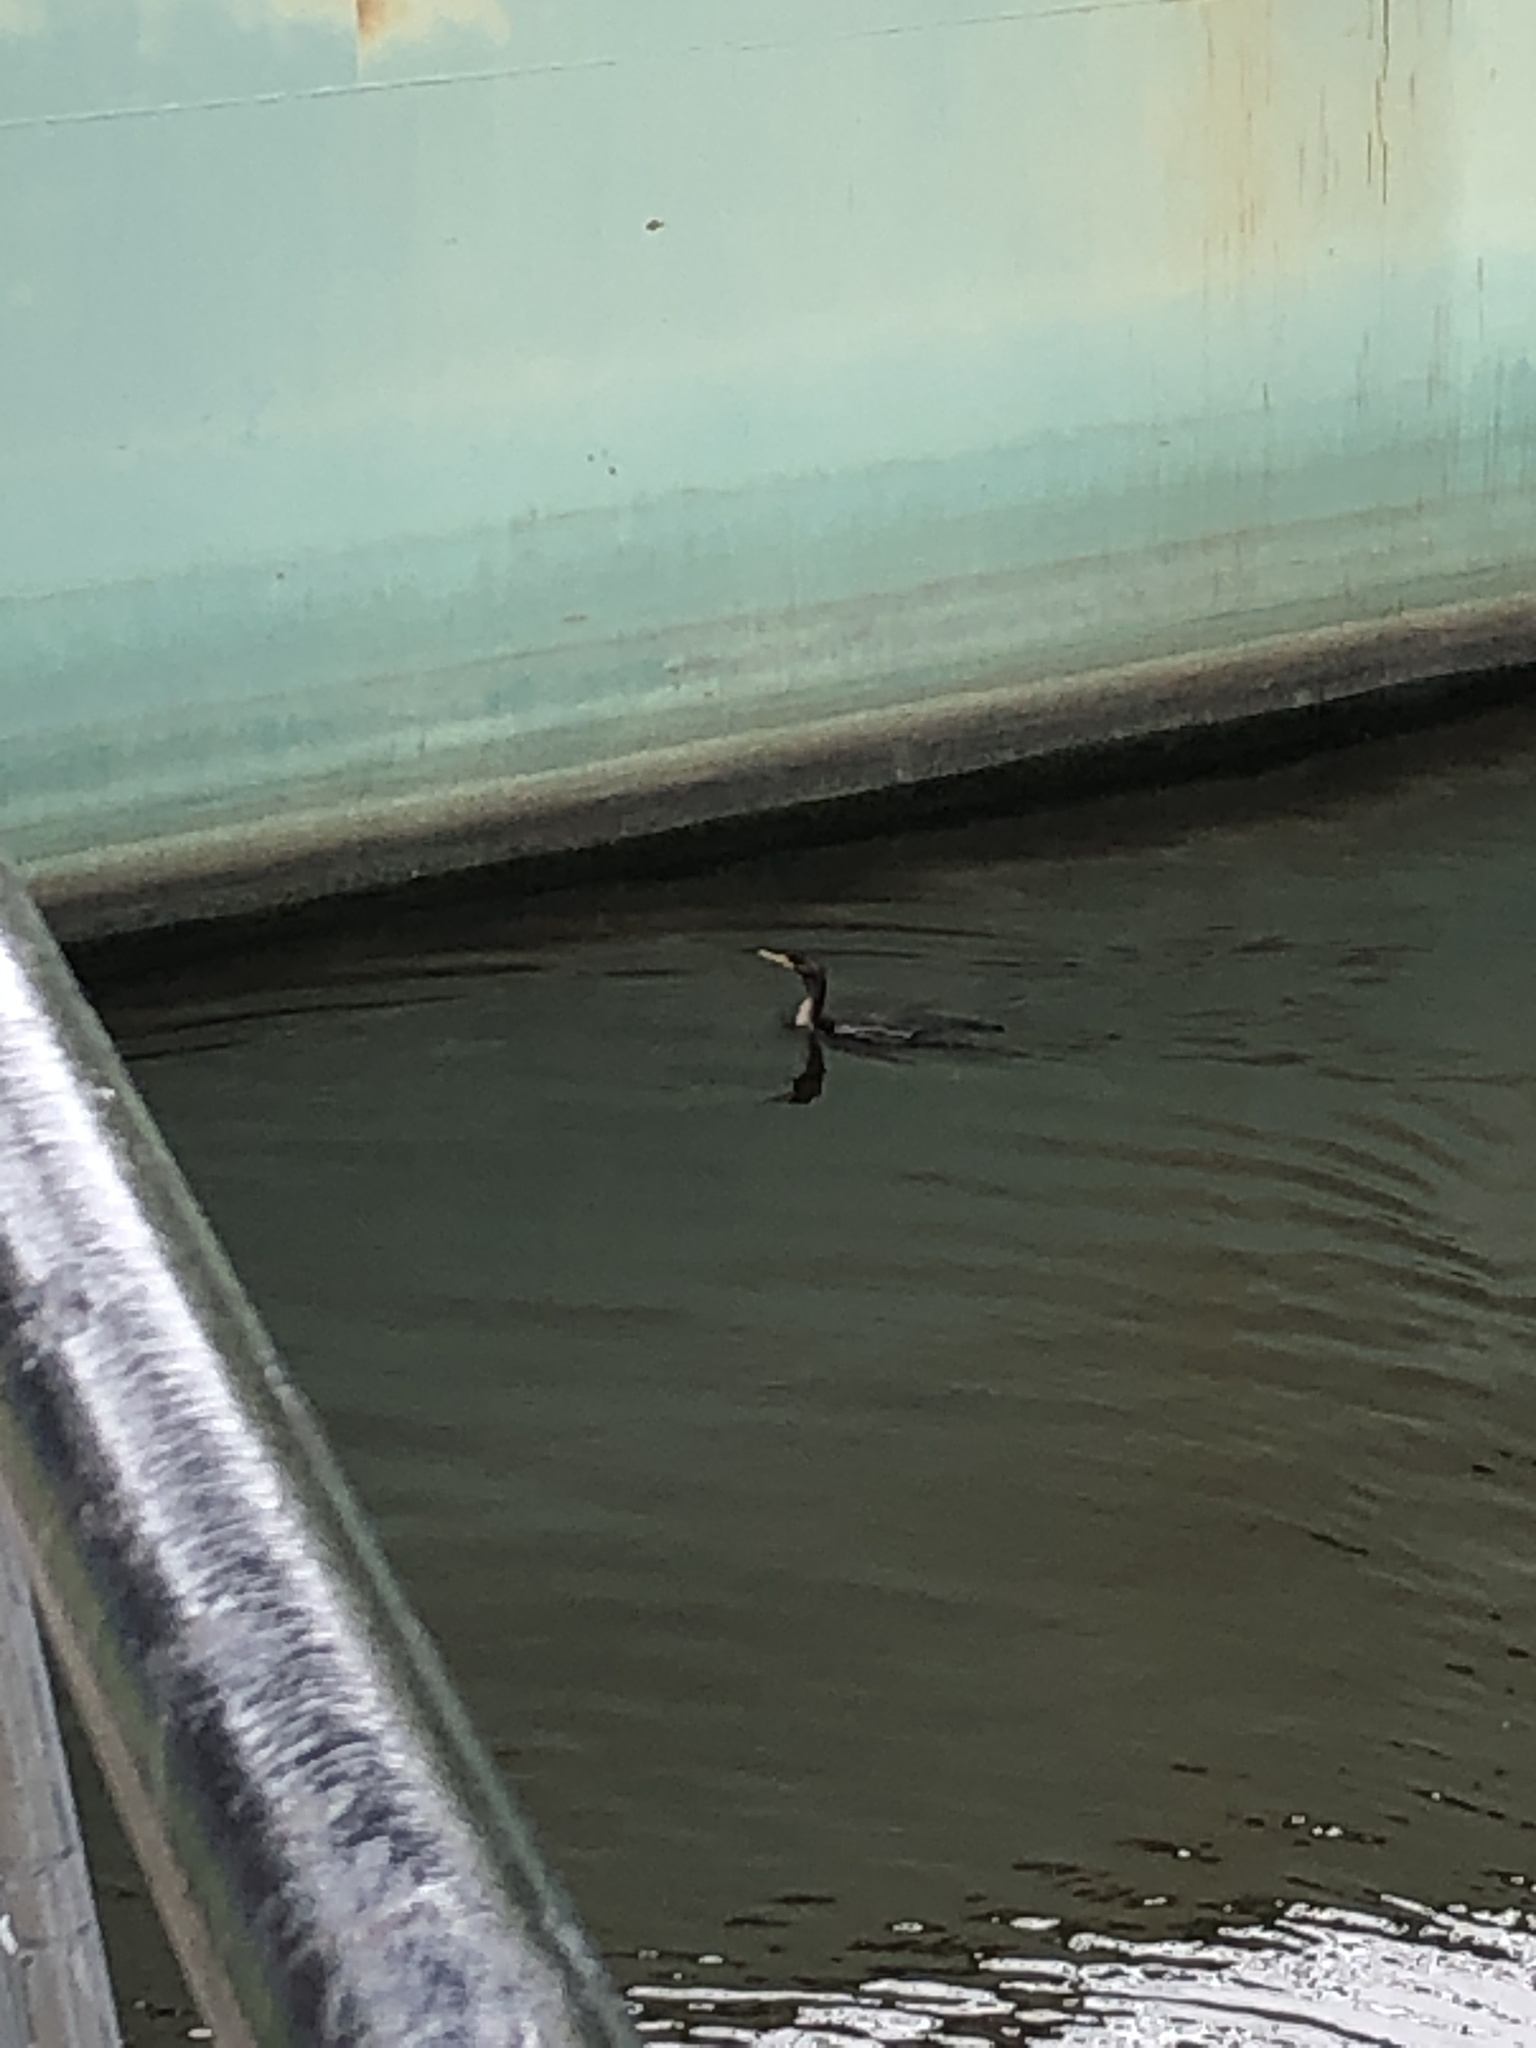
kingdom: Animalia
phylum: Chordata
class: Aves
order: Suliformes
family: Phalacrocoracidae
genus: Phalacrocorax
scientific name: Phalacrocorax auritus
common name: Double-crested cormorant
